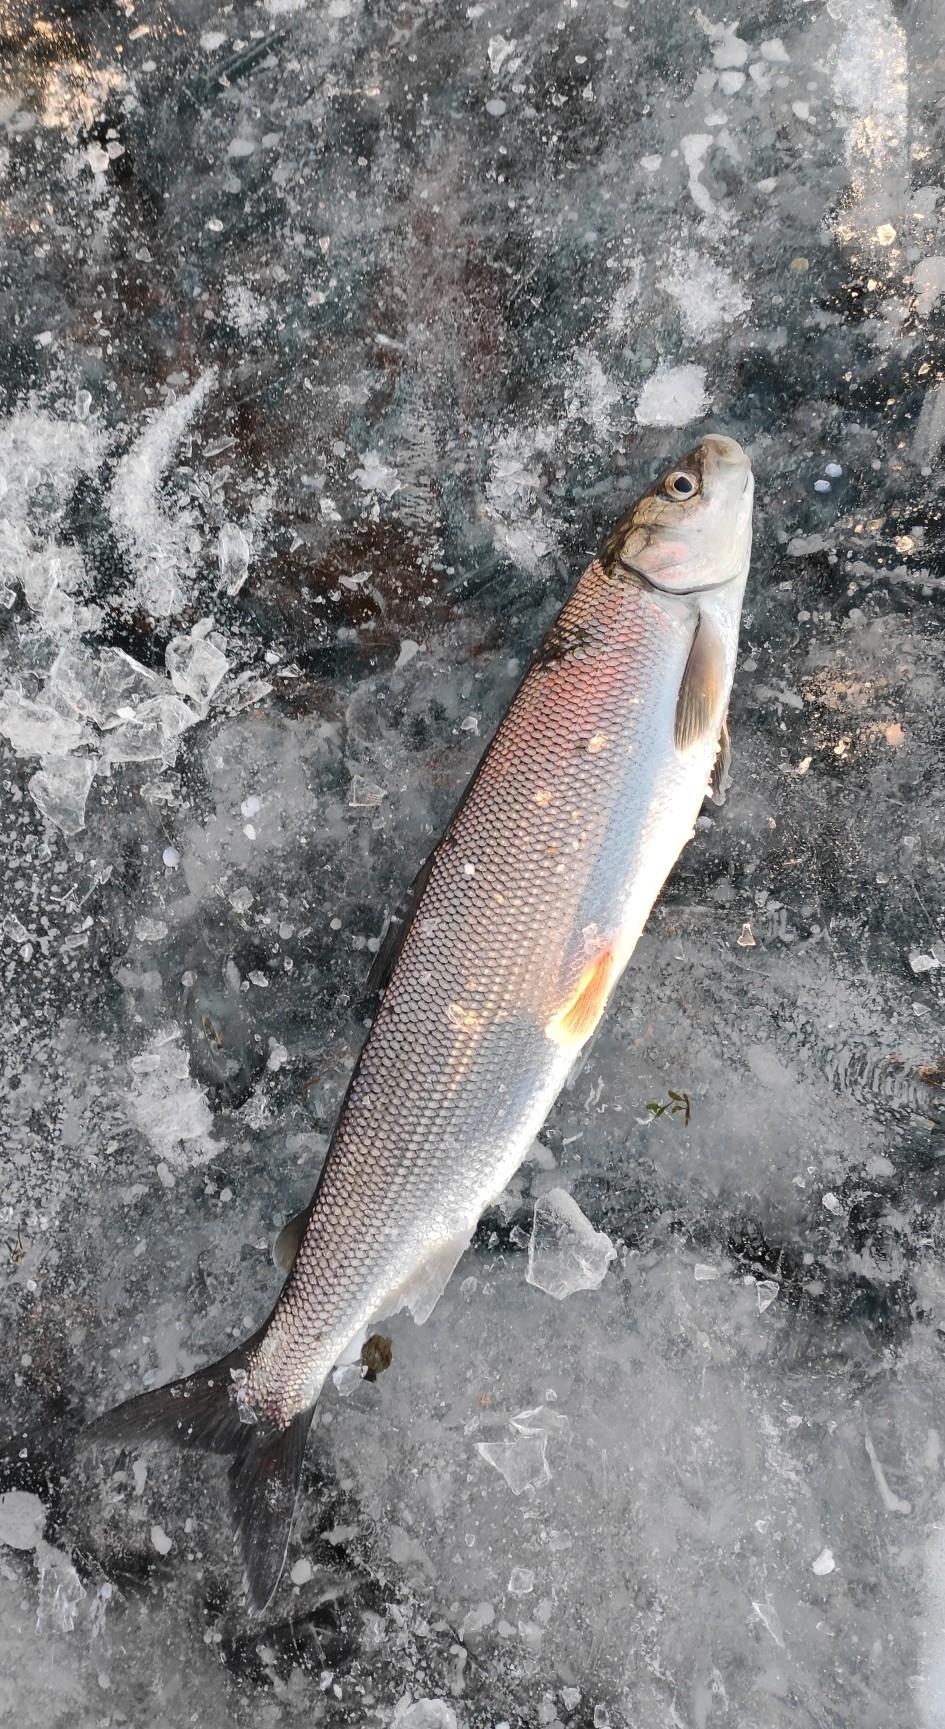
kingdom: Animalia
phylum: Chordata
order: Salmoniformes
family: Salmonidae
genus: Coregonus
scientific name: Coregonus migratorius
